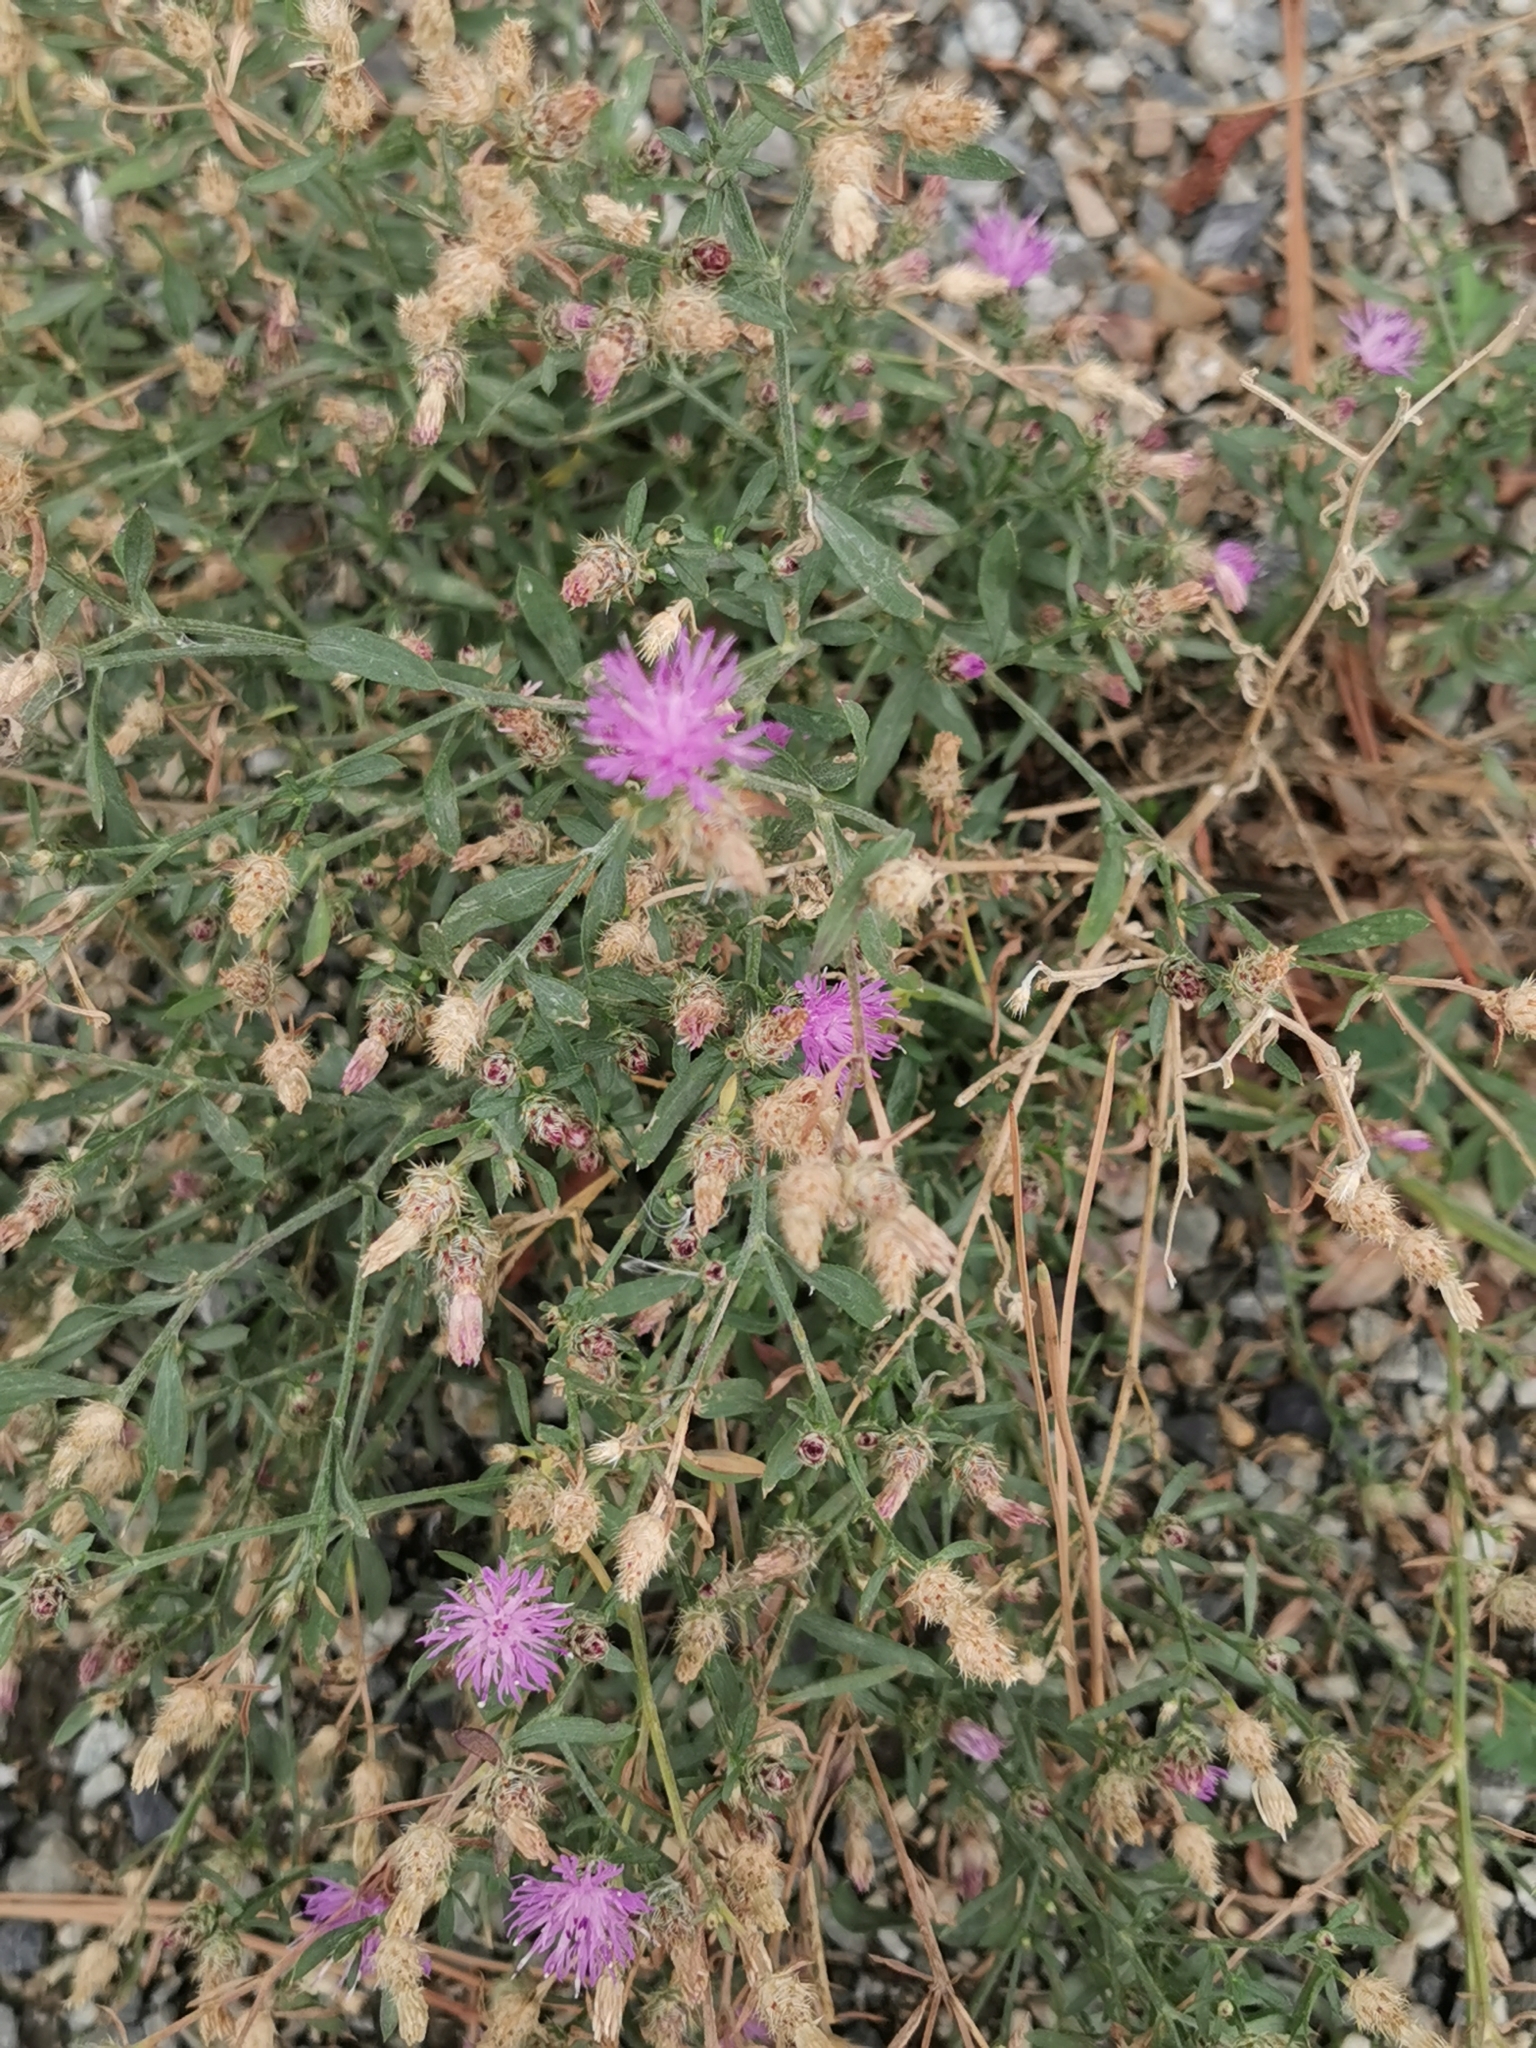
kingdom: Plantae
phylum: Tracheophyta
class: Magnoliopsida
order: Asterales
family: Asteraceae
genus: Centaurea
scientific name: Centaurea psammogena
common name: Diffuse-spotted knapweed hybrid
